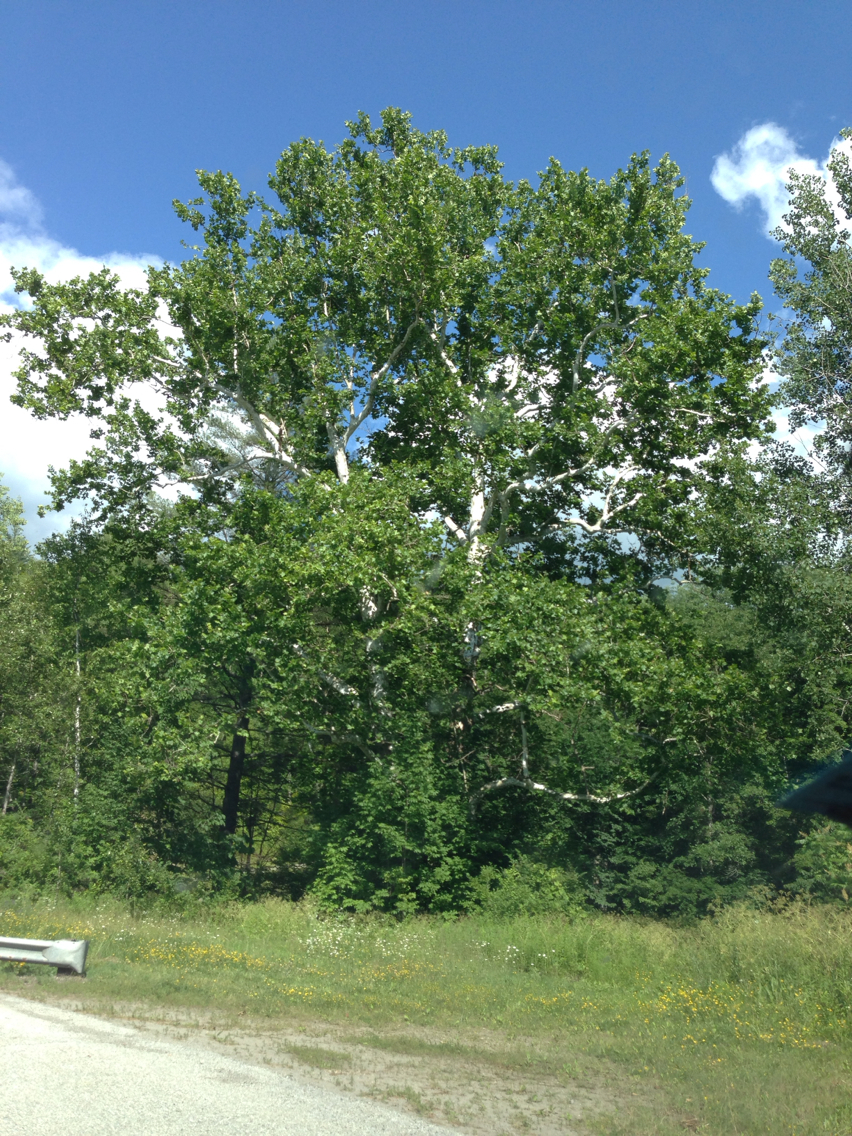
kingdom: Plantae
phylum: Tracheophyta
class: Magnoliopsida
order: Proteales
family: Platanaceae
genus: Platanus
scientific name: Platanus occidentalis
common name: American sycamore
